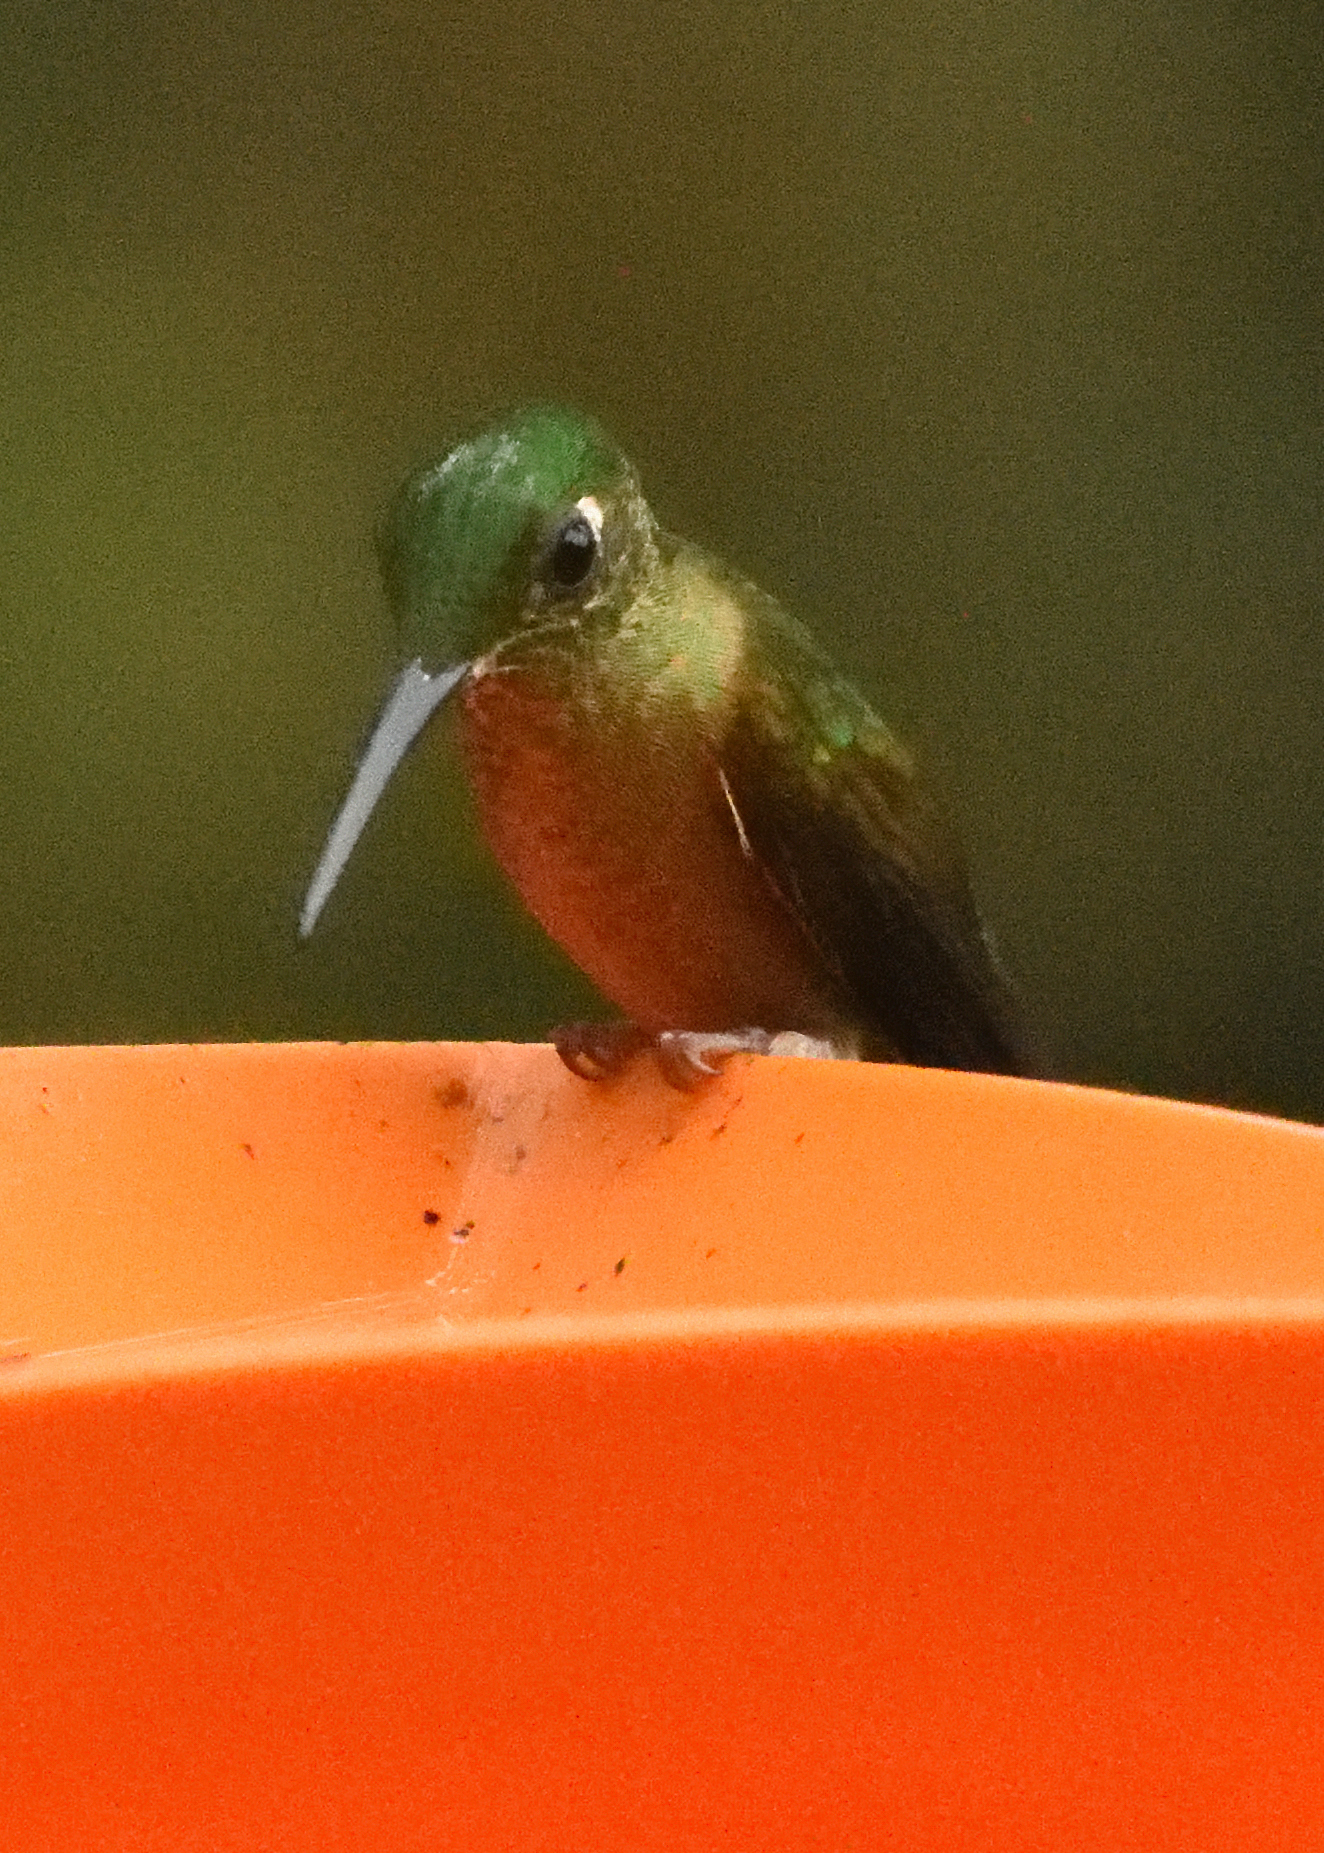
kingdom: Animalia
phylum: Chordata
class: Aves
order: Apodiformes
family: Trochilidae
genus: Heliodoxa
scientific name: Heliodoxa rubinoides
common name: Fawn-breasted brilliant
